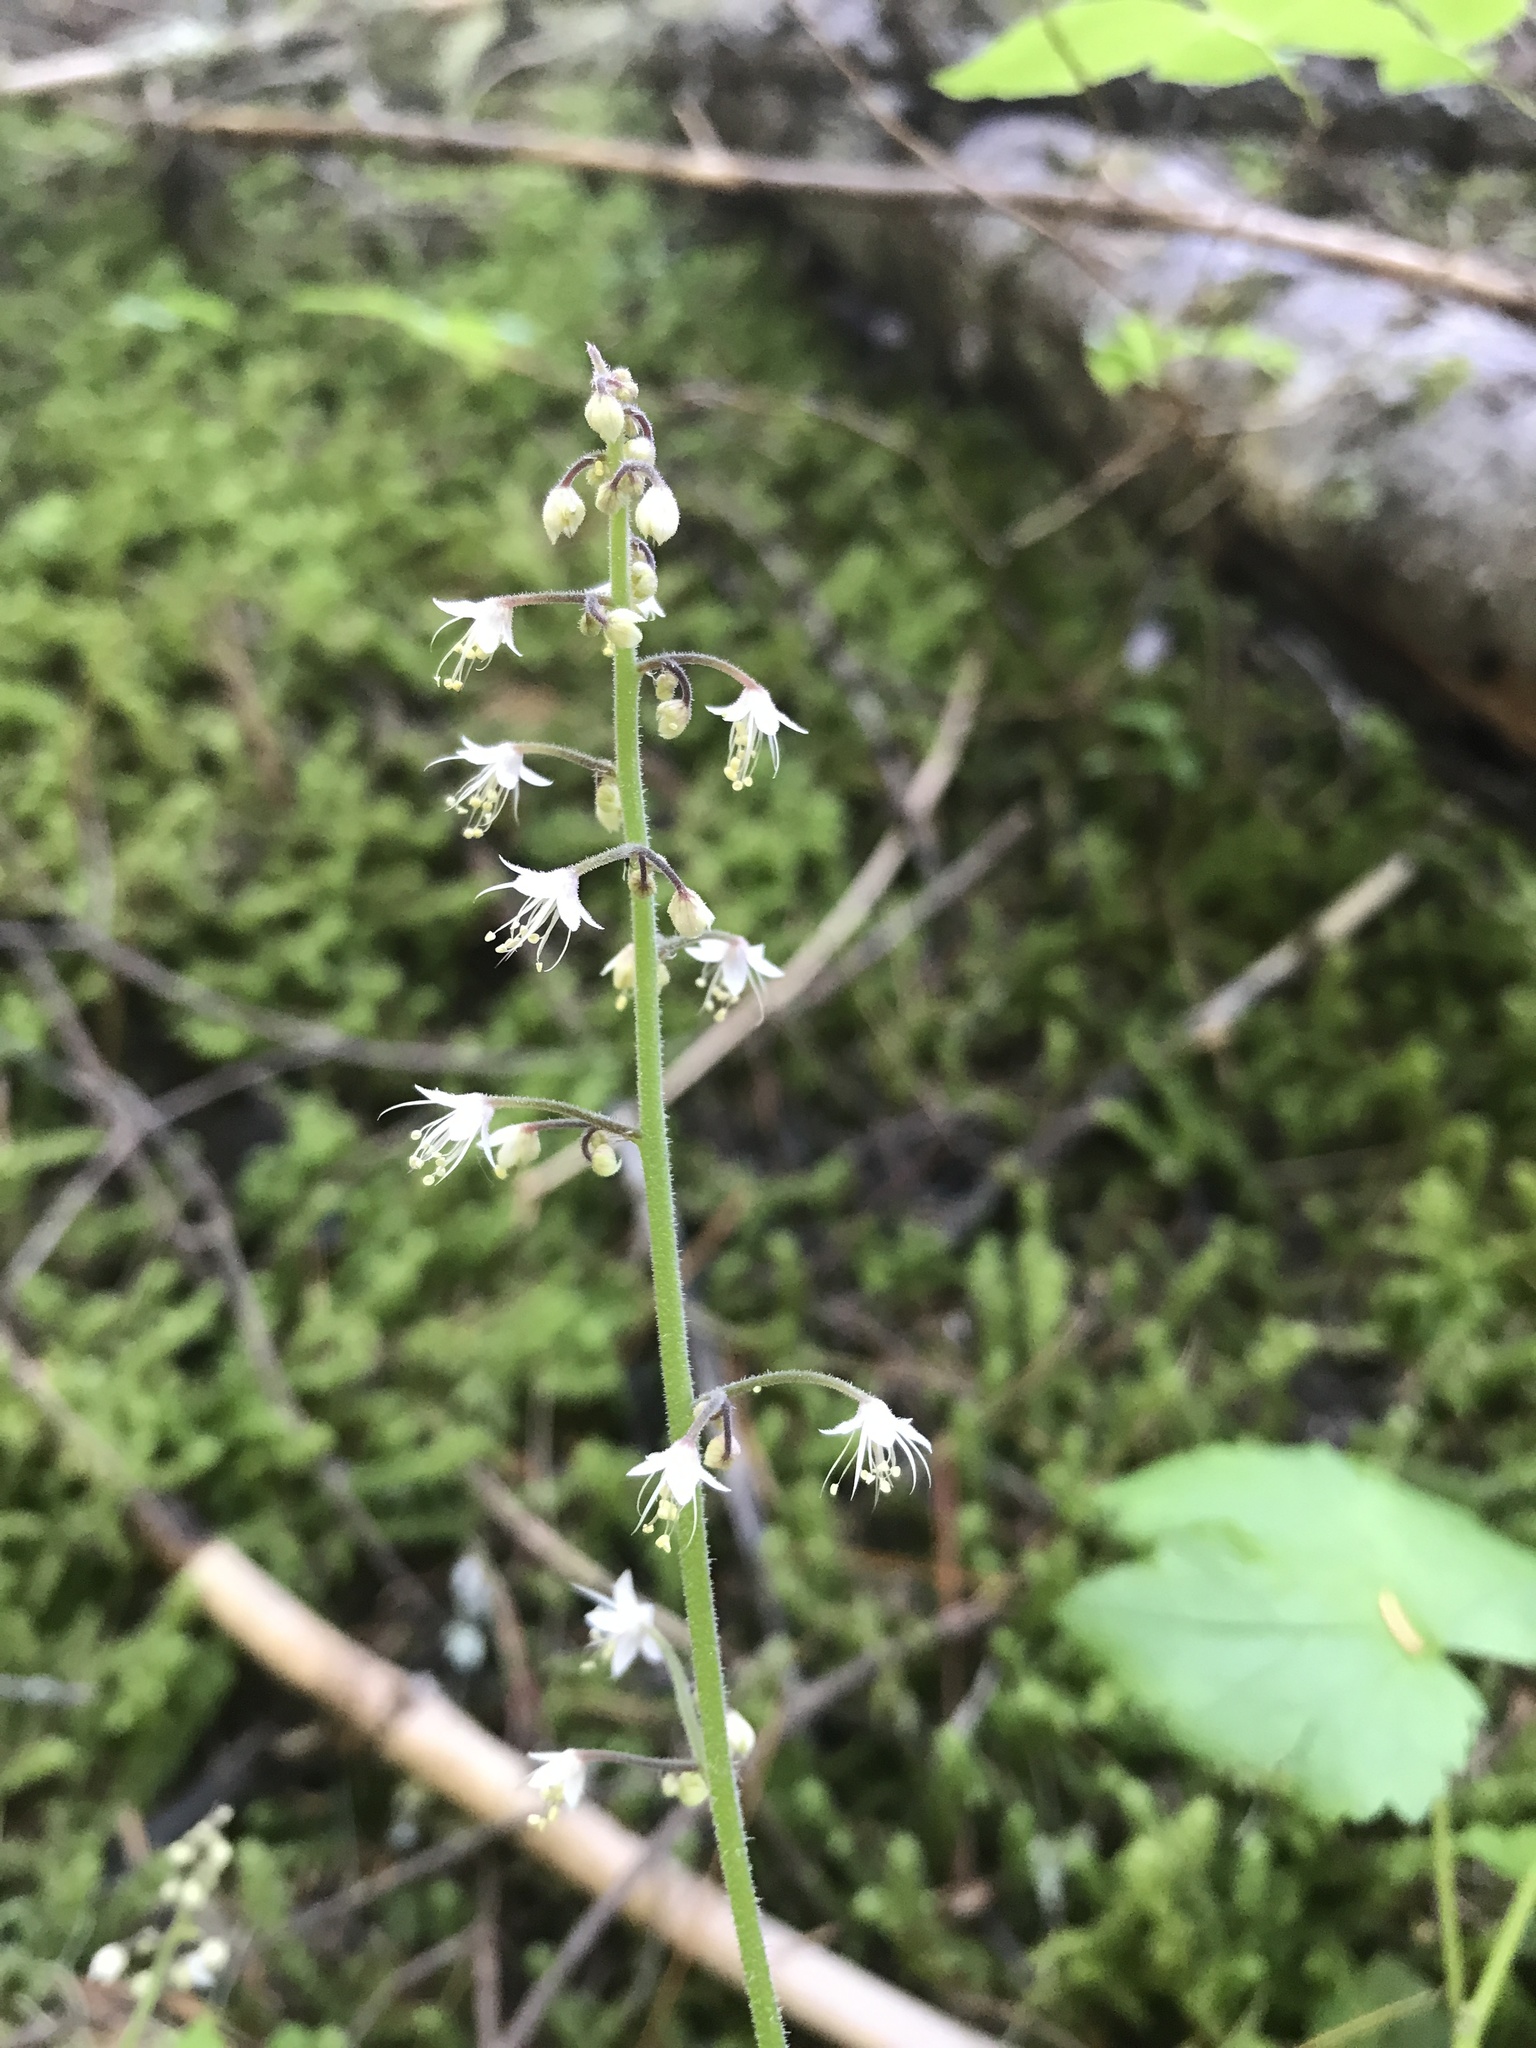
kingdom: Plantae
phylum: Tracheophyta
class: Magnoliopsida
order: Saxifragales
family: Saxifragaceae
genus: Tiarella
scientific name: Tiarella trifoliata
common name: Sugar-scoop
